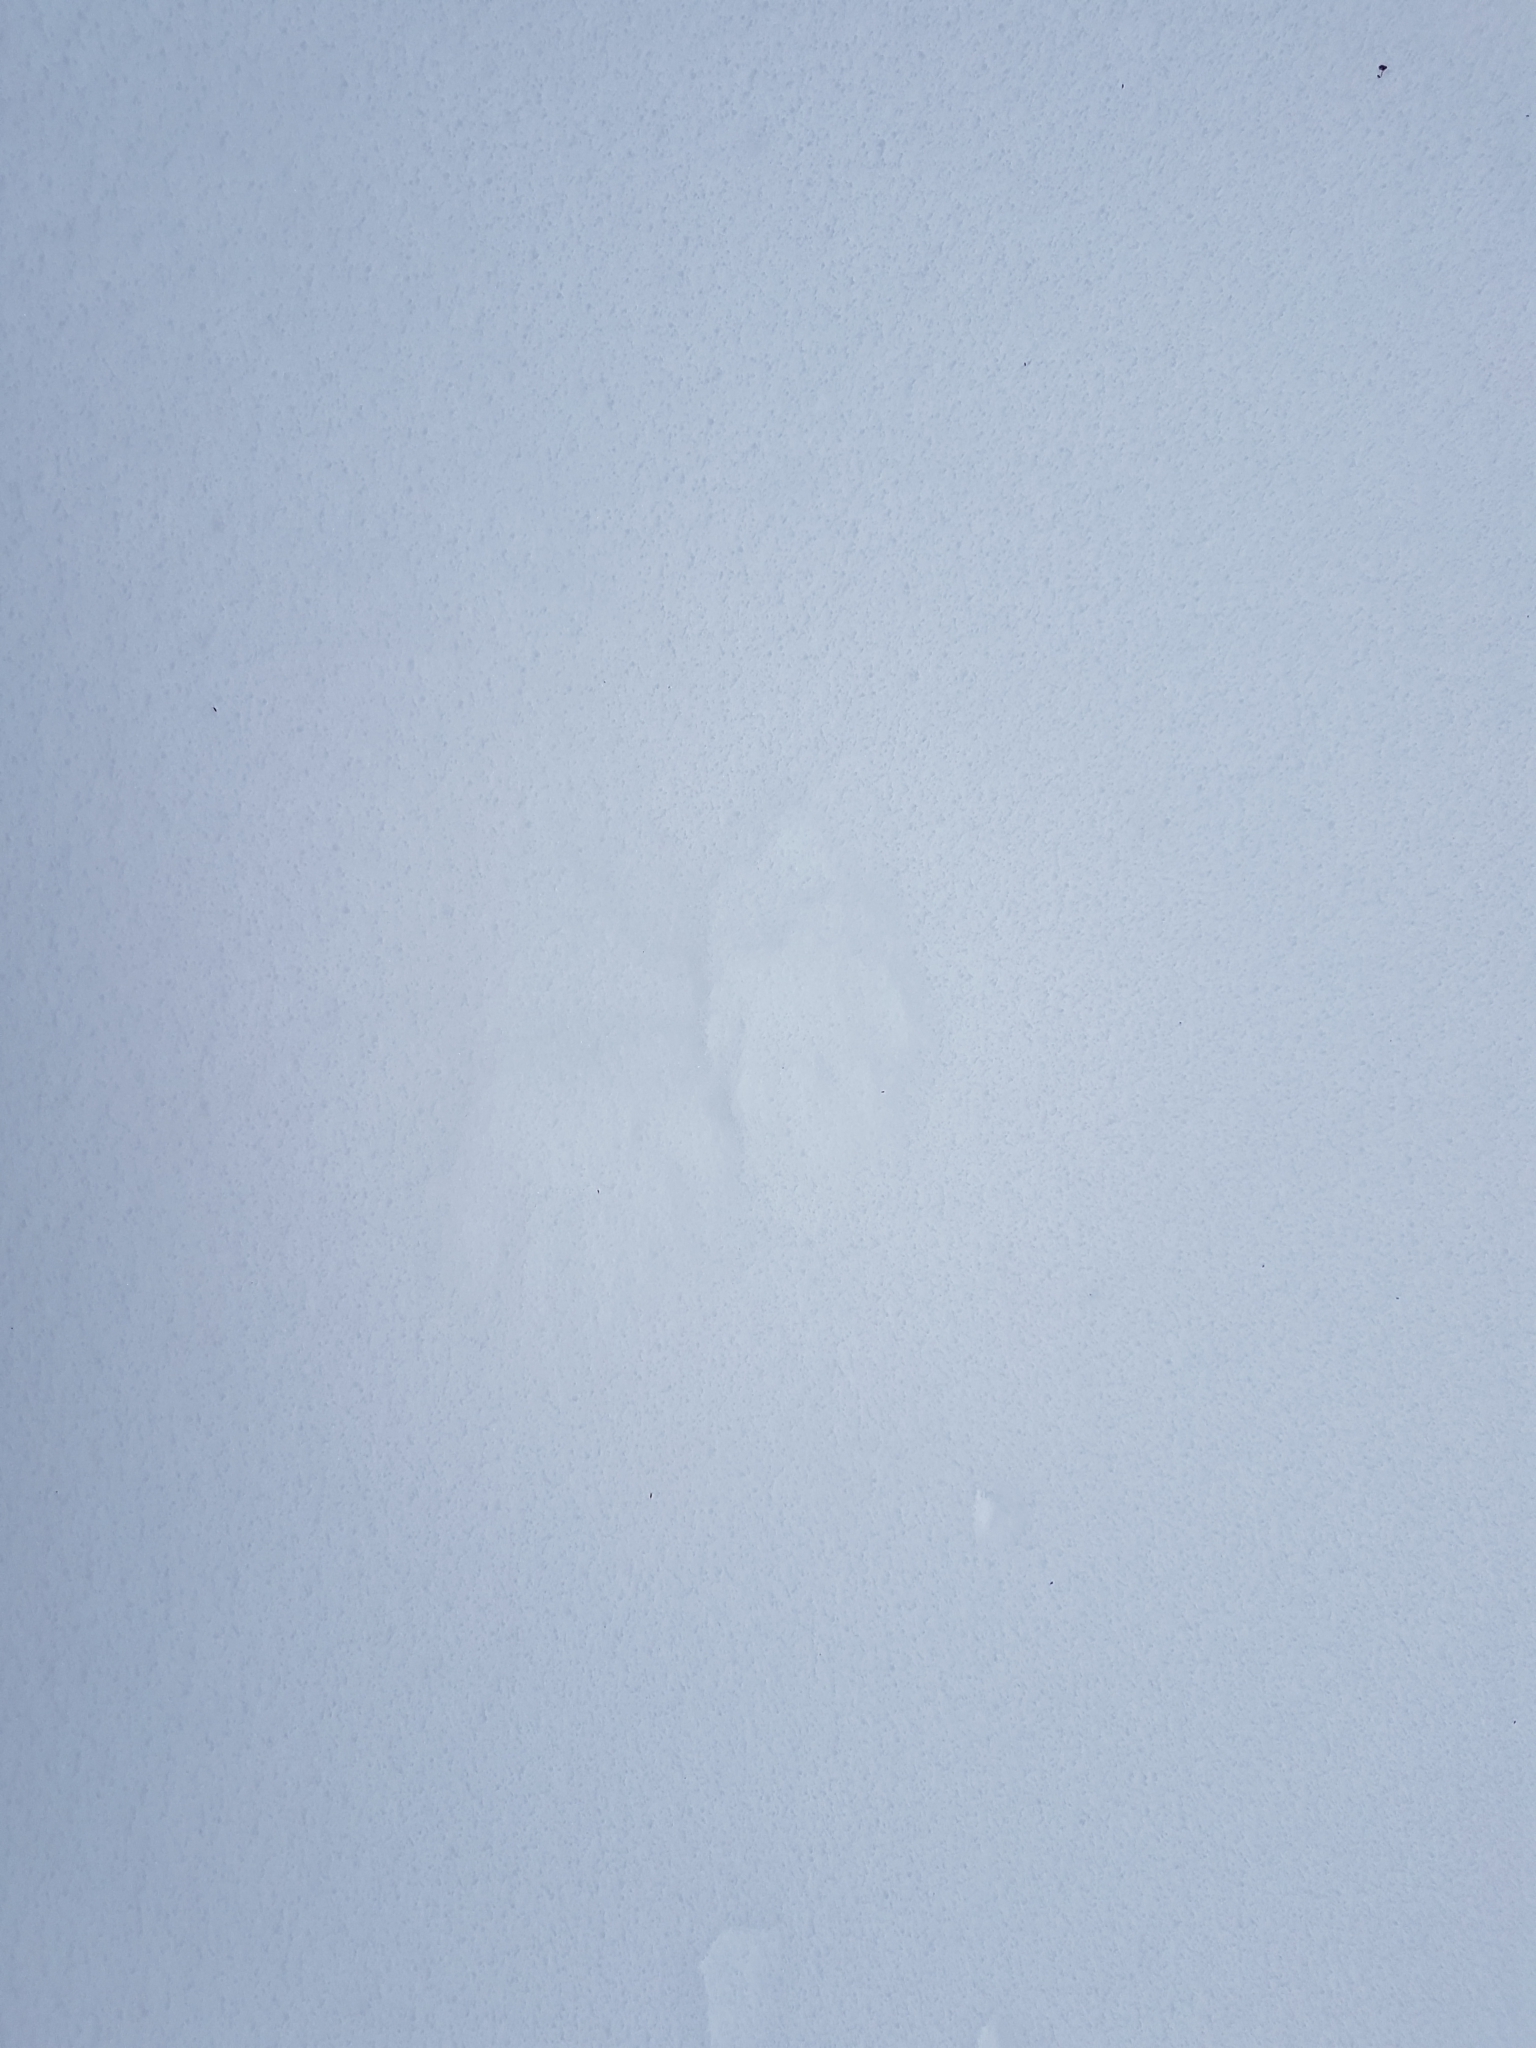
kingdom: Animalia
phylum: Chordata
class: Mammalia
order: Carnivora
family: Procyonidae
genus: Procyon
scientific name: Procyon lotor
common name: Raccoon
